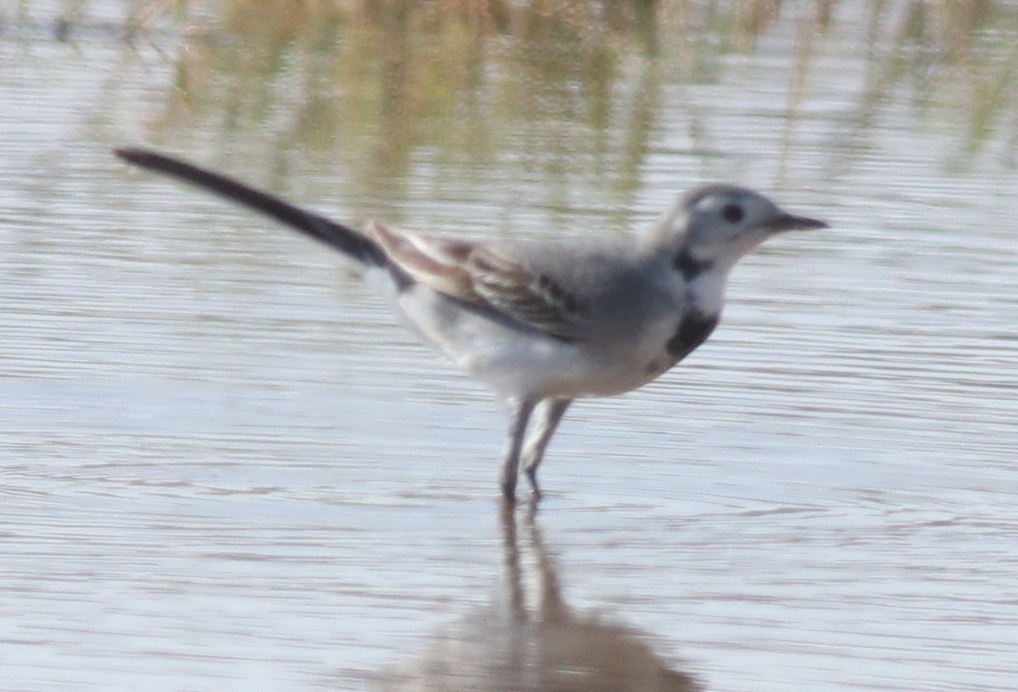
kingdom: Animalia
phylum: Chordata
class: Aves
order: Passeriformes
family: Motacillidae
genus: Motacilla
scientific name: Motacilla alba
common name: White wagtail
